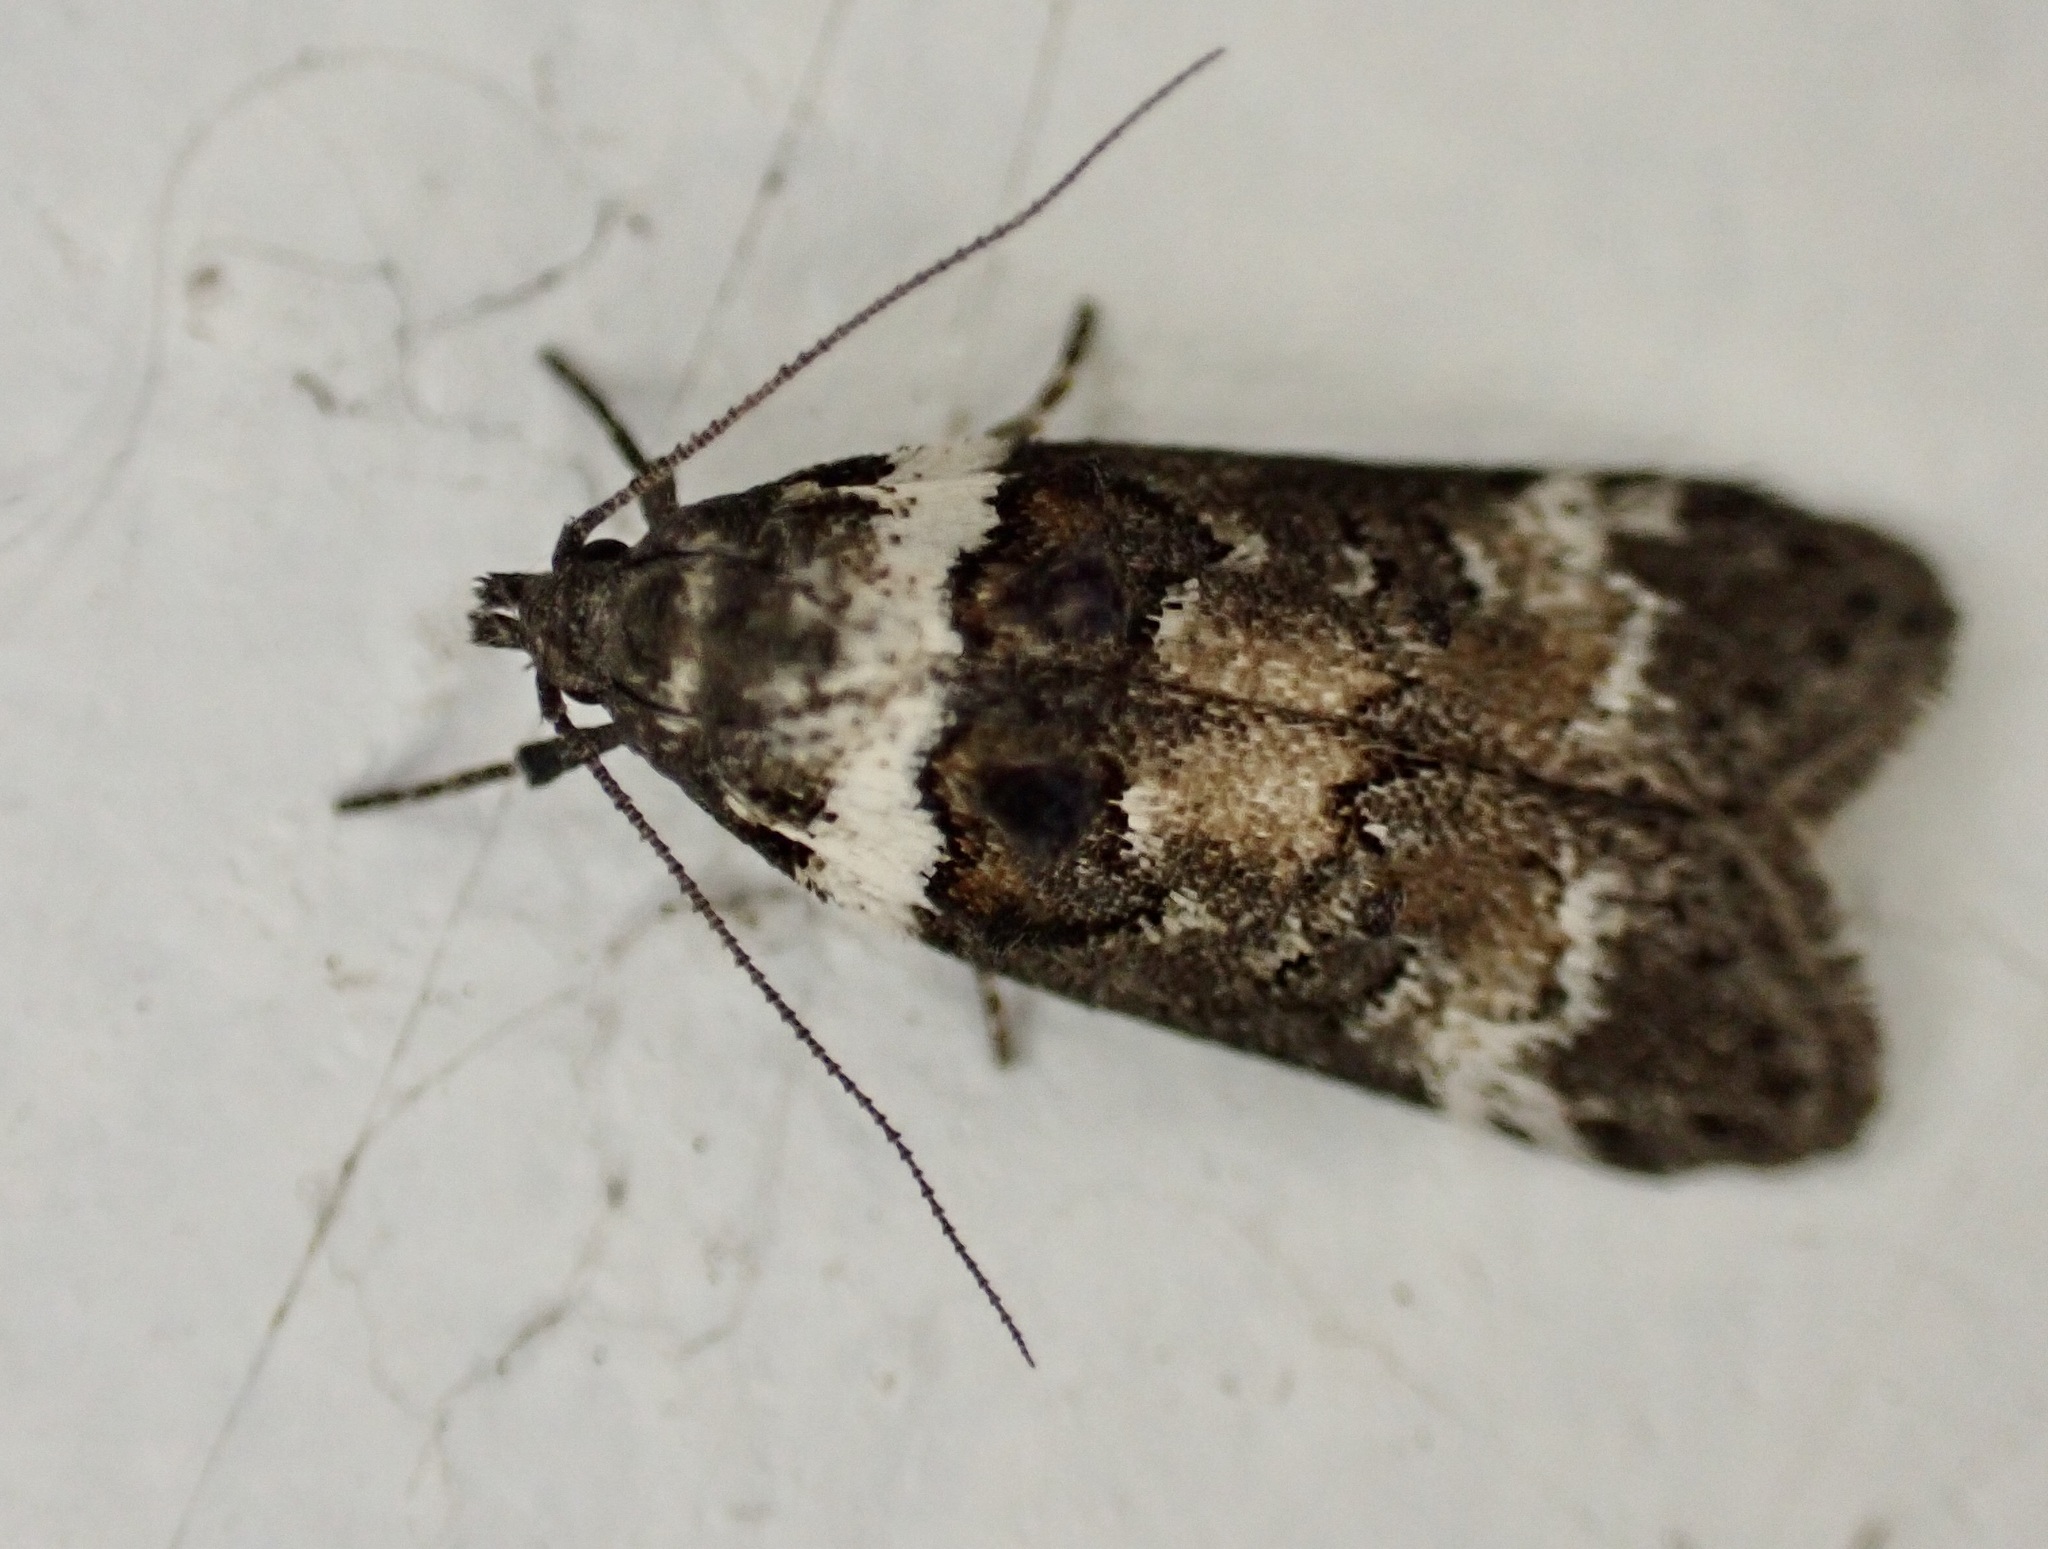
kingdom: Animalia
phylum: Arthropoda
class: Insecta
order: Lepidoptera
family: Oecophoridae
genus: Trachypepla
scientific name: Trachypepla conspicuella
